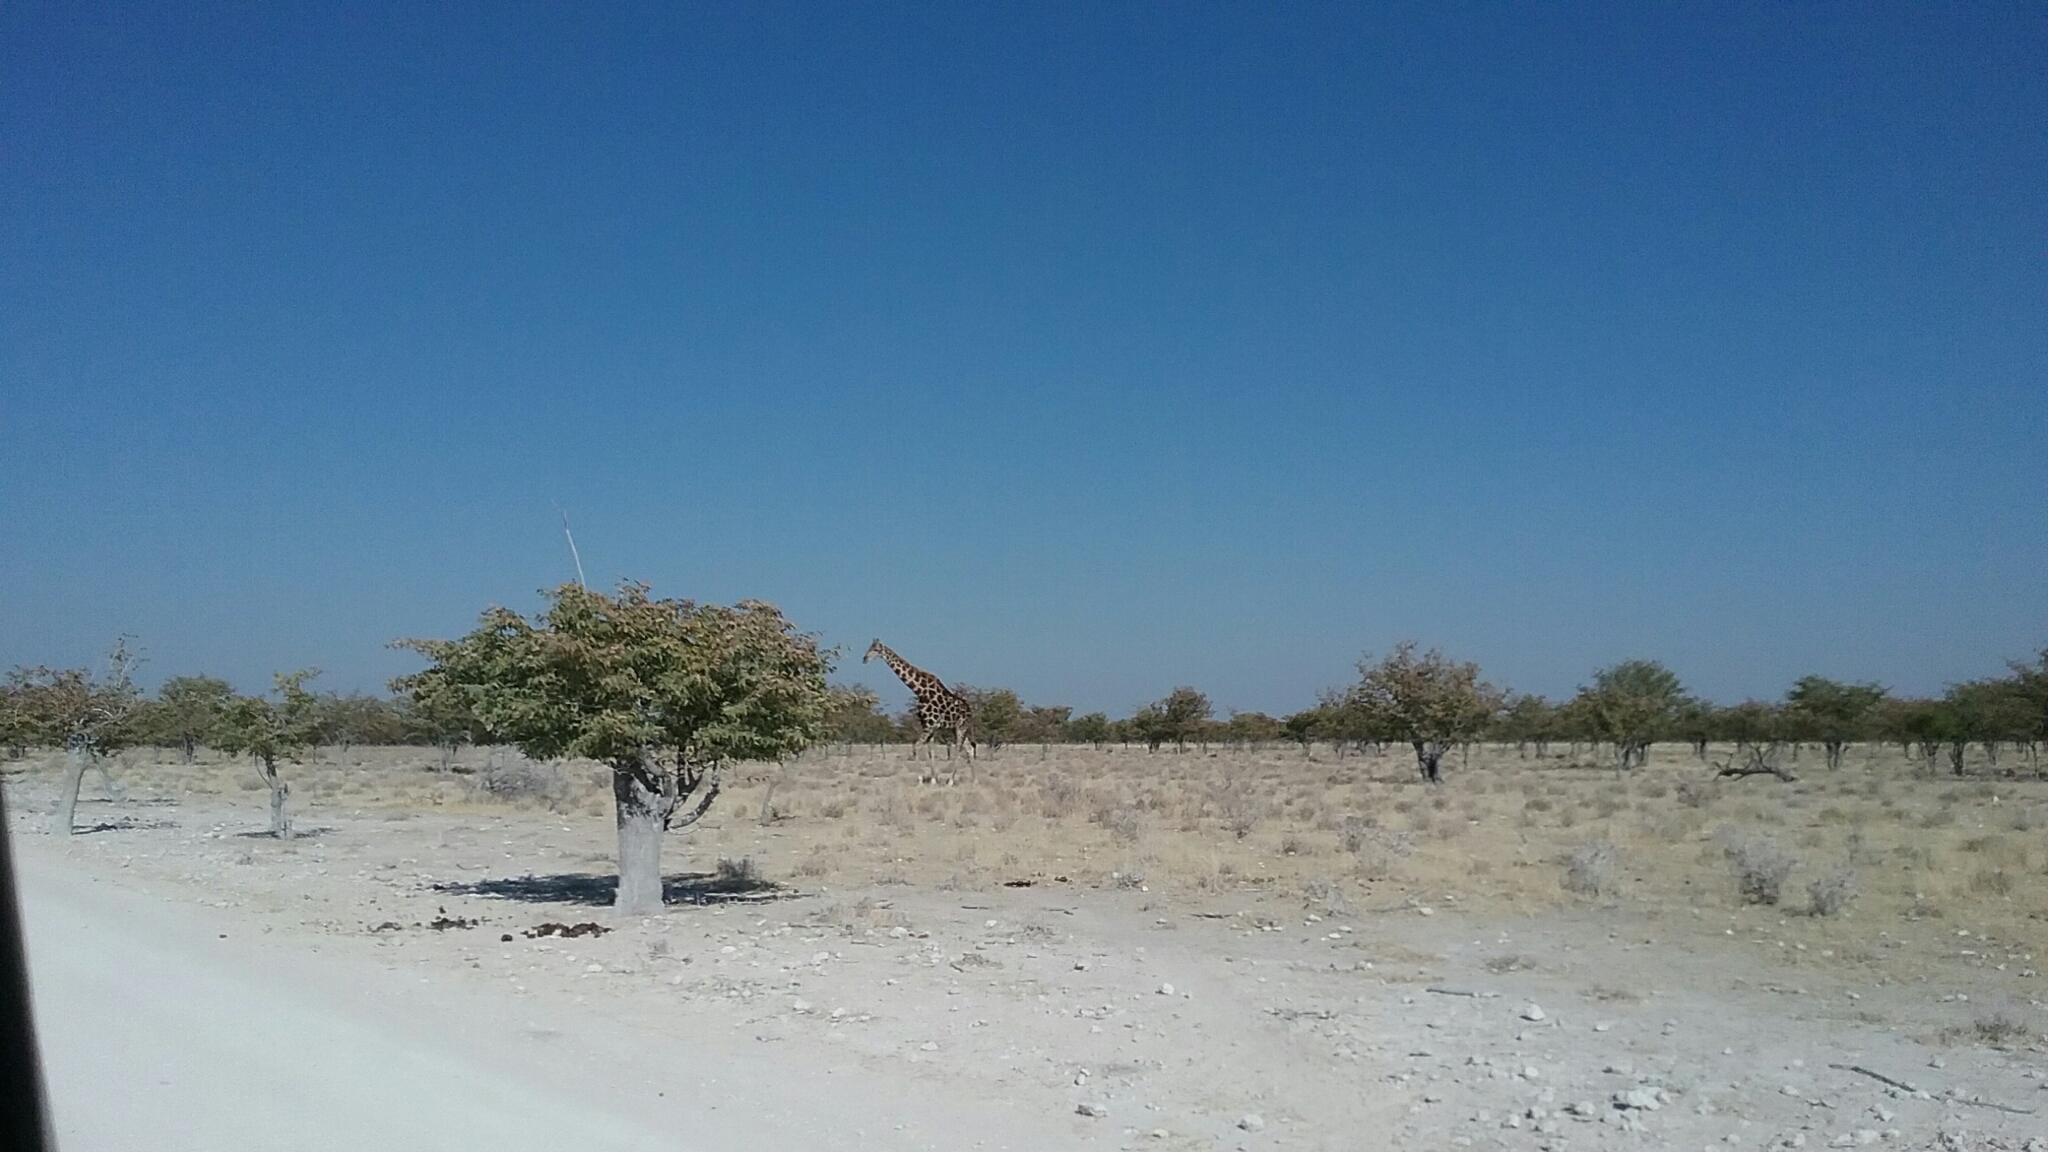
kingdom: Animalia
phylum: Chordata
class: Mammalia
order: Artiodactyla
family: Giraffidae
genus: Giraffa
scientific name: Giraffa giraffa
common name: Southern giraffe
